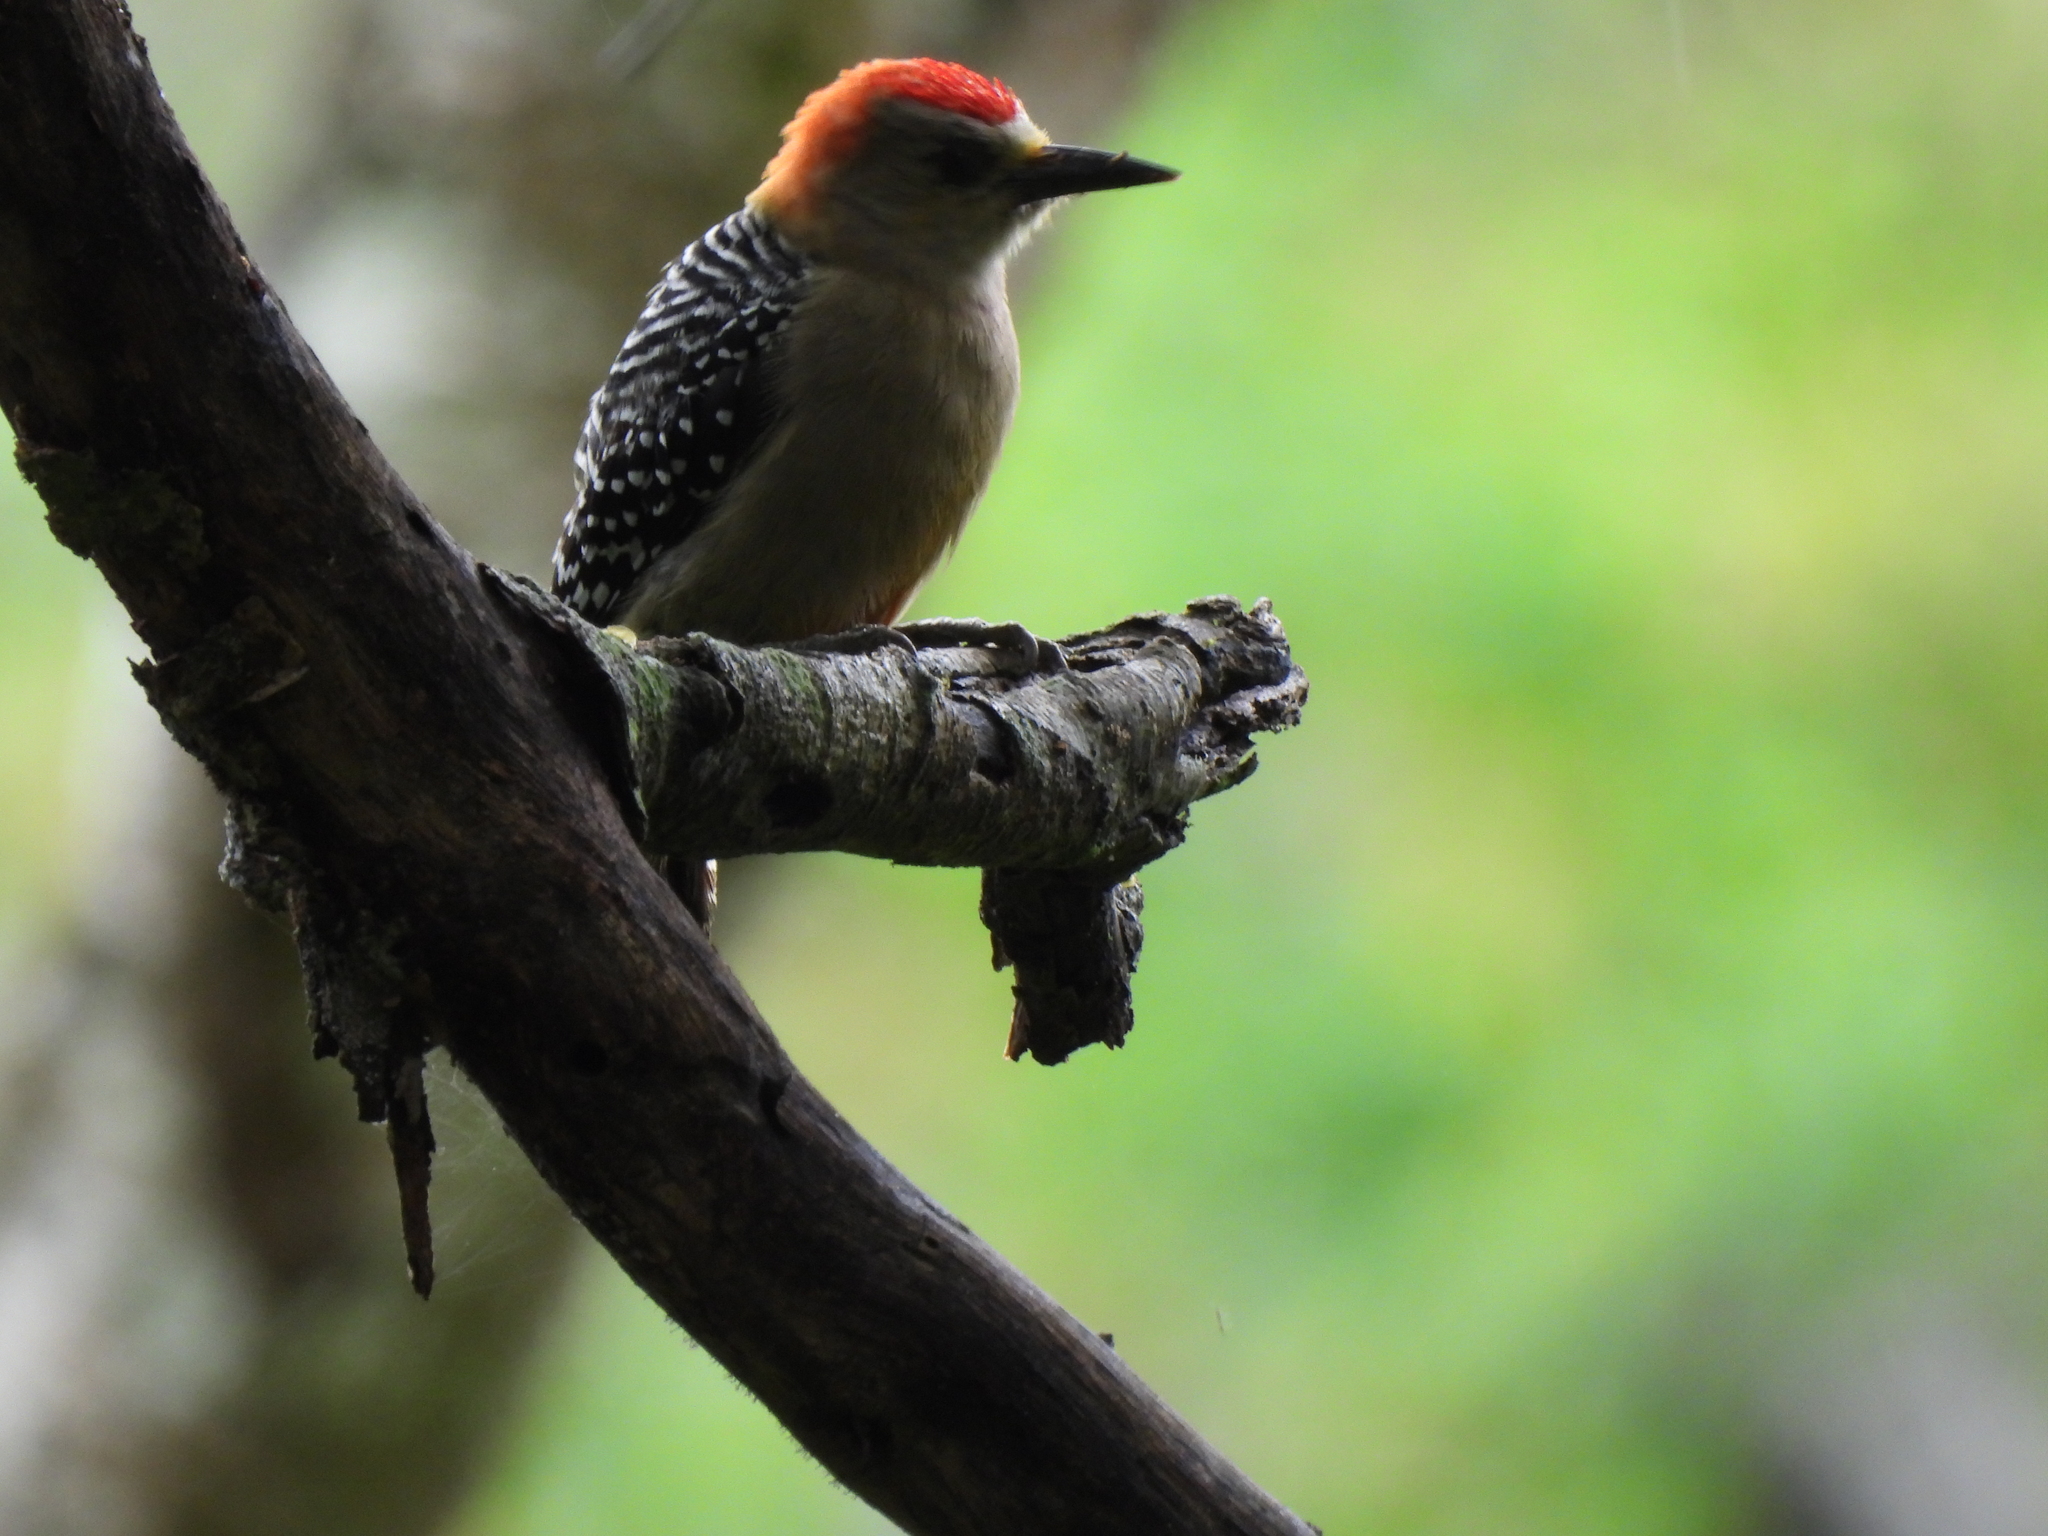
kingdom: Animalia
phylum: Chordata
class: Aves
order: Piciformes
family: Picidae
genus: Melanerpes
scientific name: Melanerpes rubricapillus
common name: Red-crowned woodpecker
